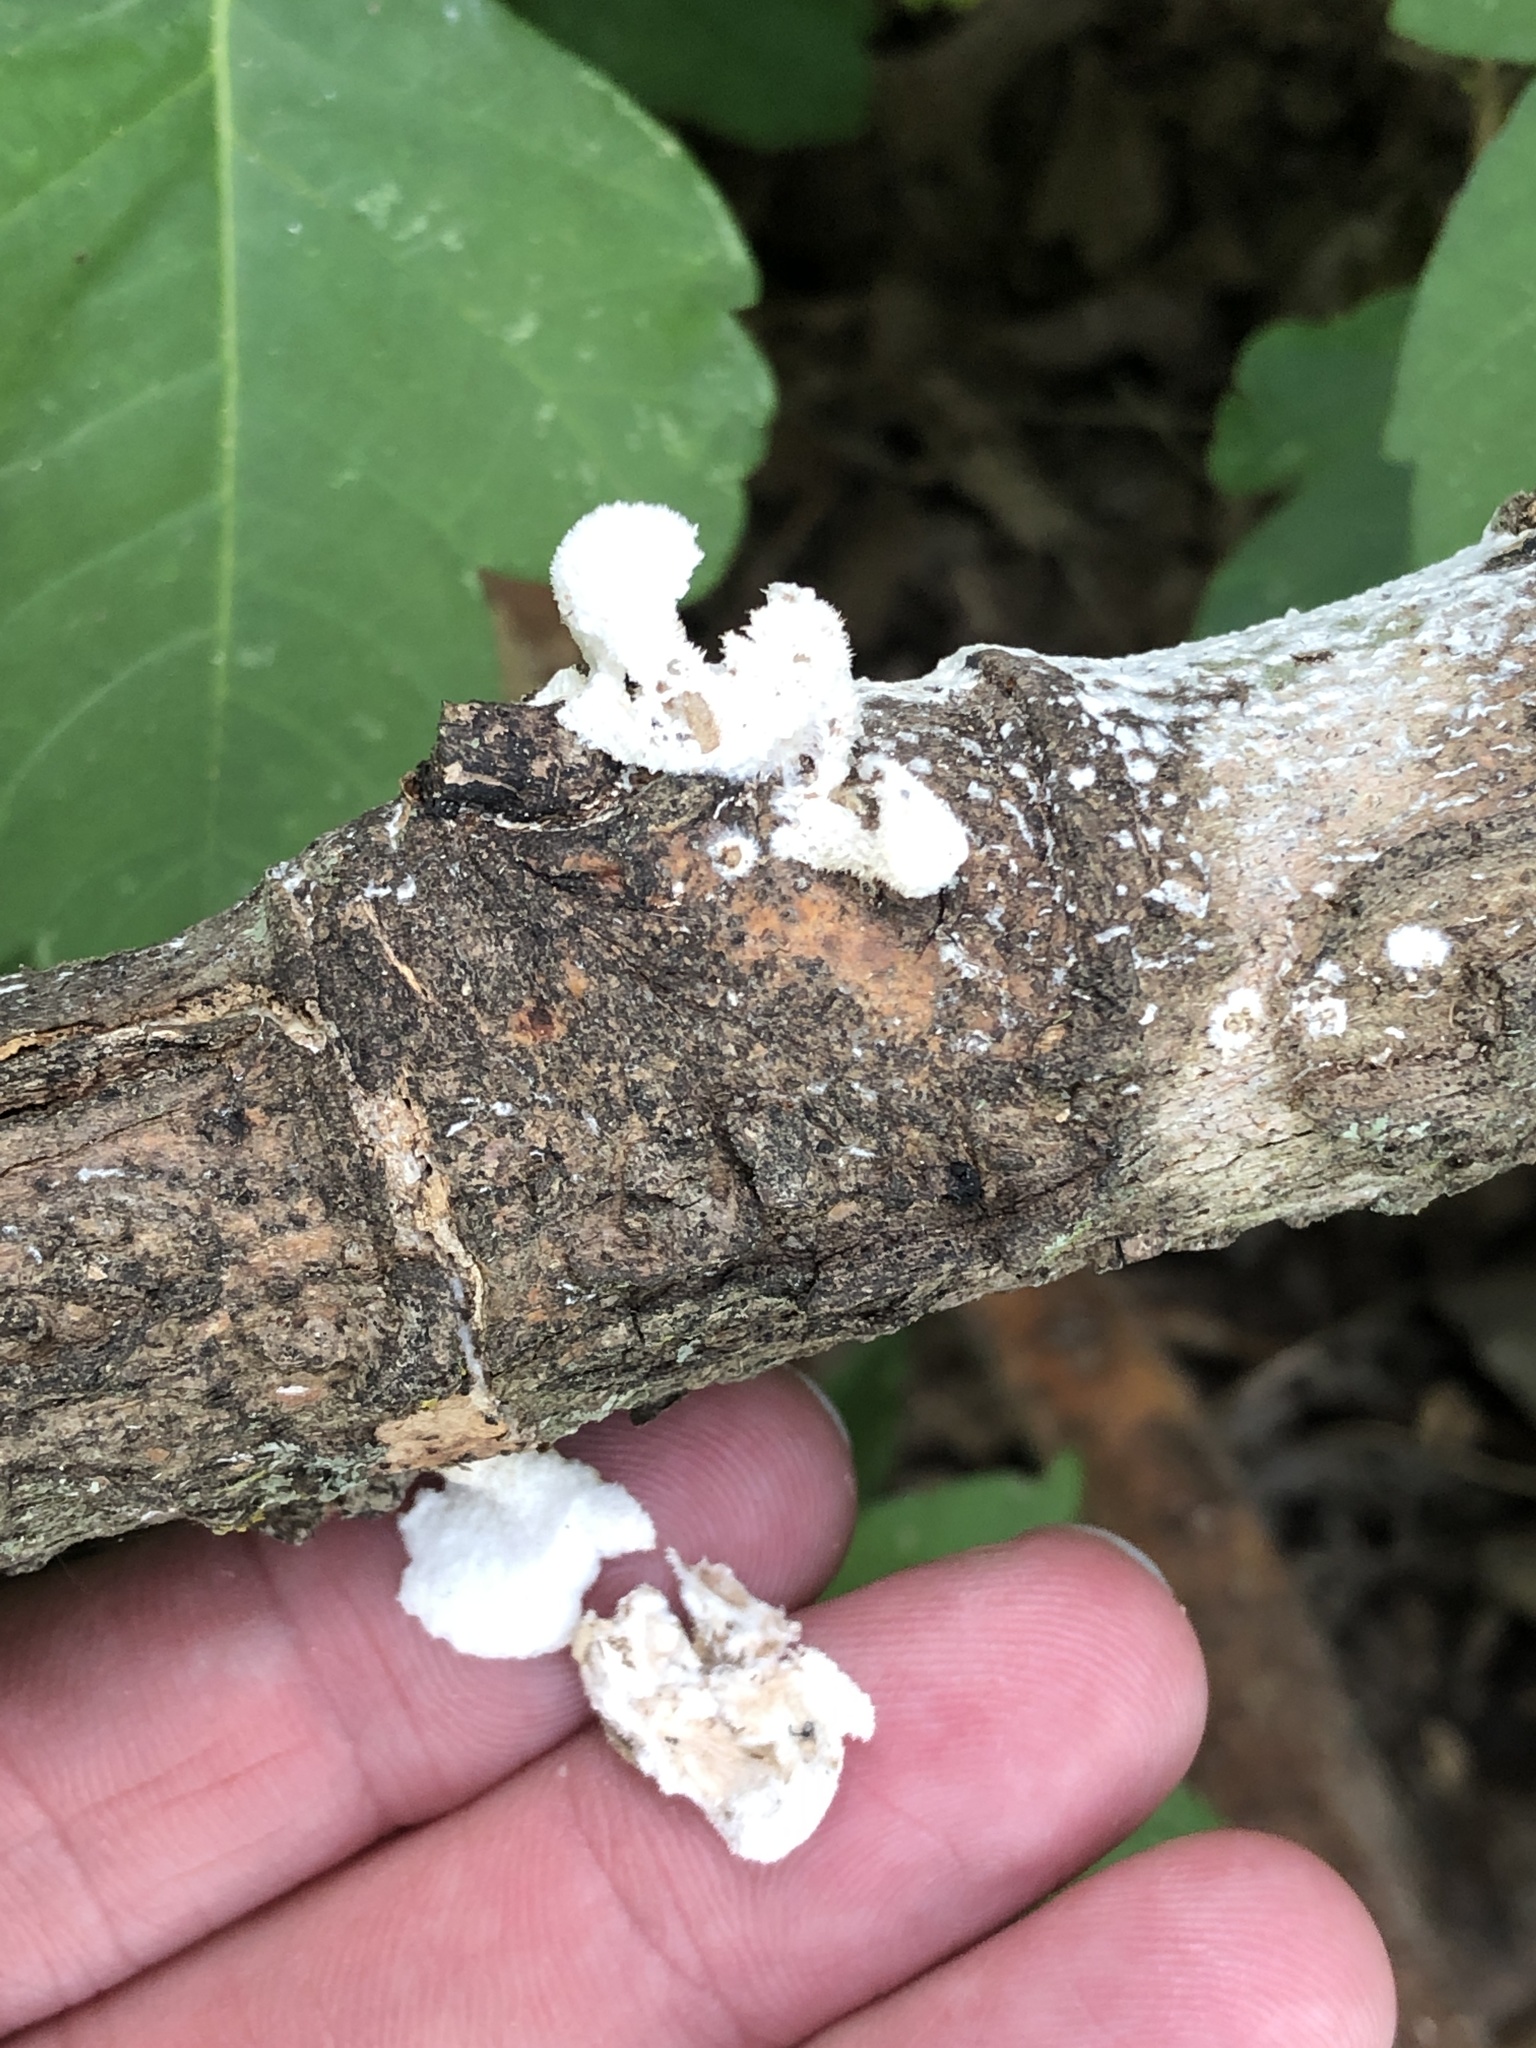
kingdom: Fungi
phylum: Basidiomycota
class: Agaricomycetes
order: Agaricales
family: Schizophyllaceae
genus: Schizophyllum
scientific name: Schizophyllum commune
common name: Common porecrust
